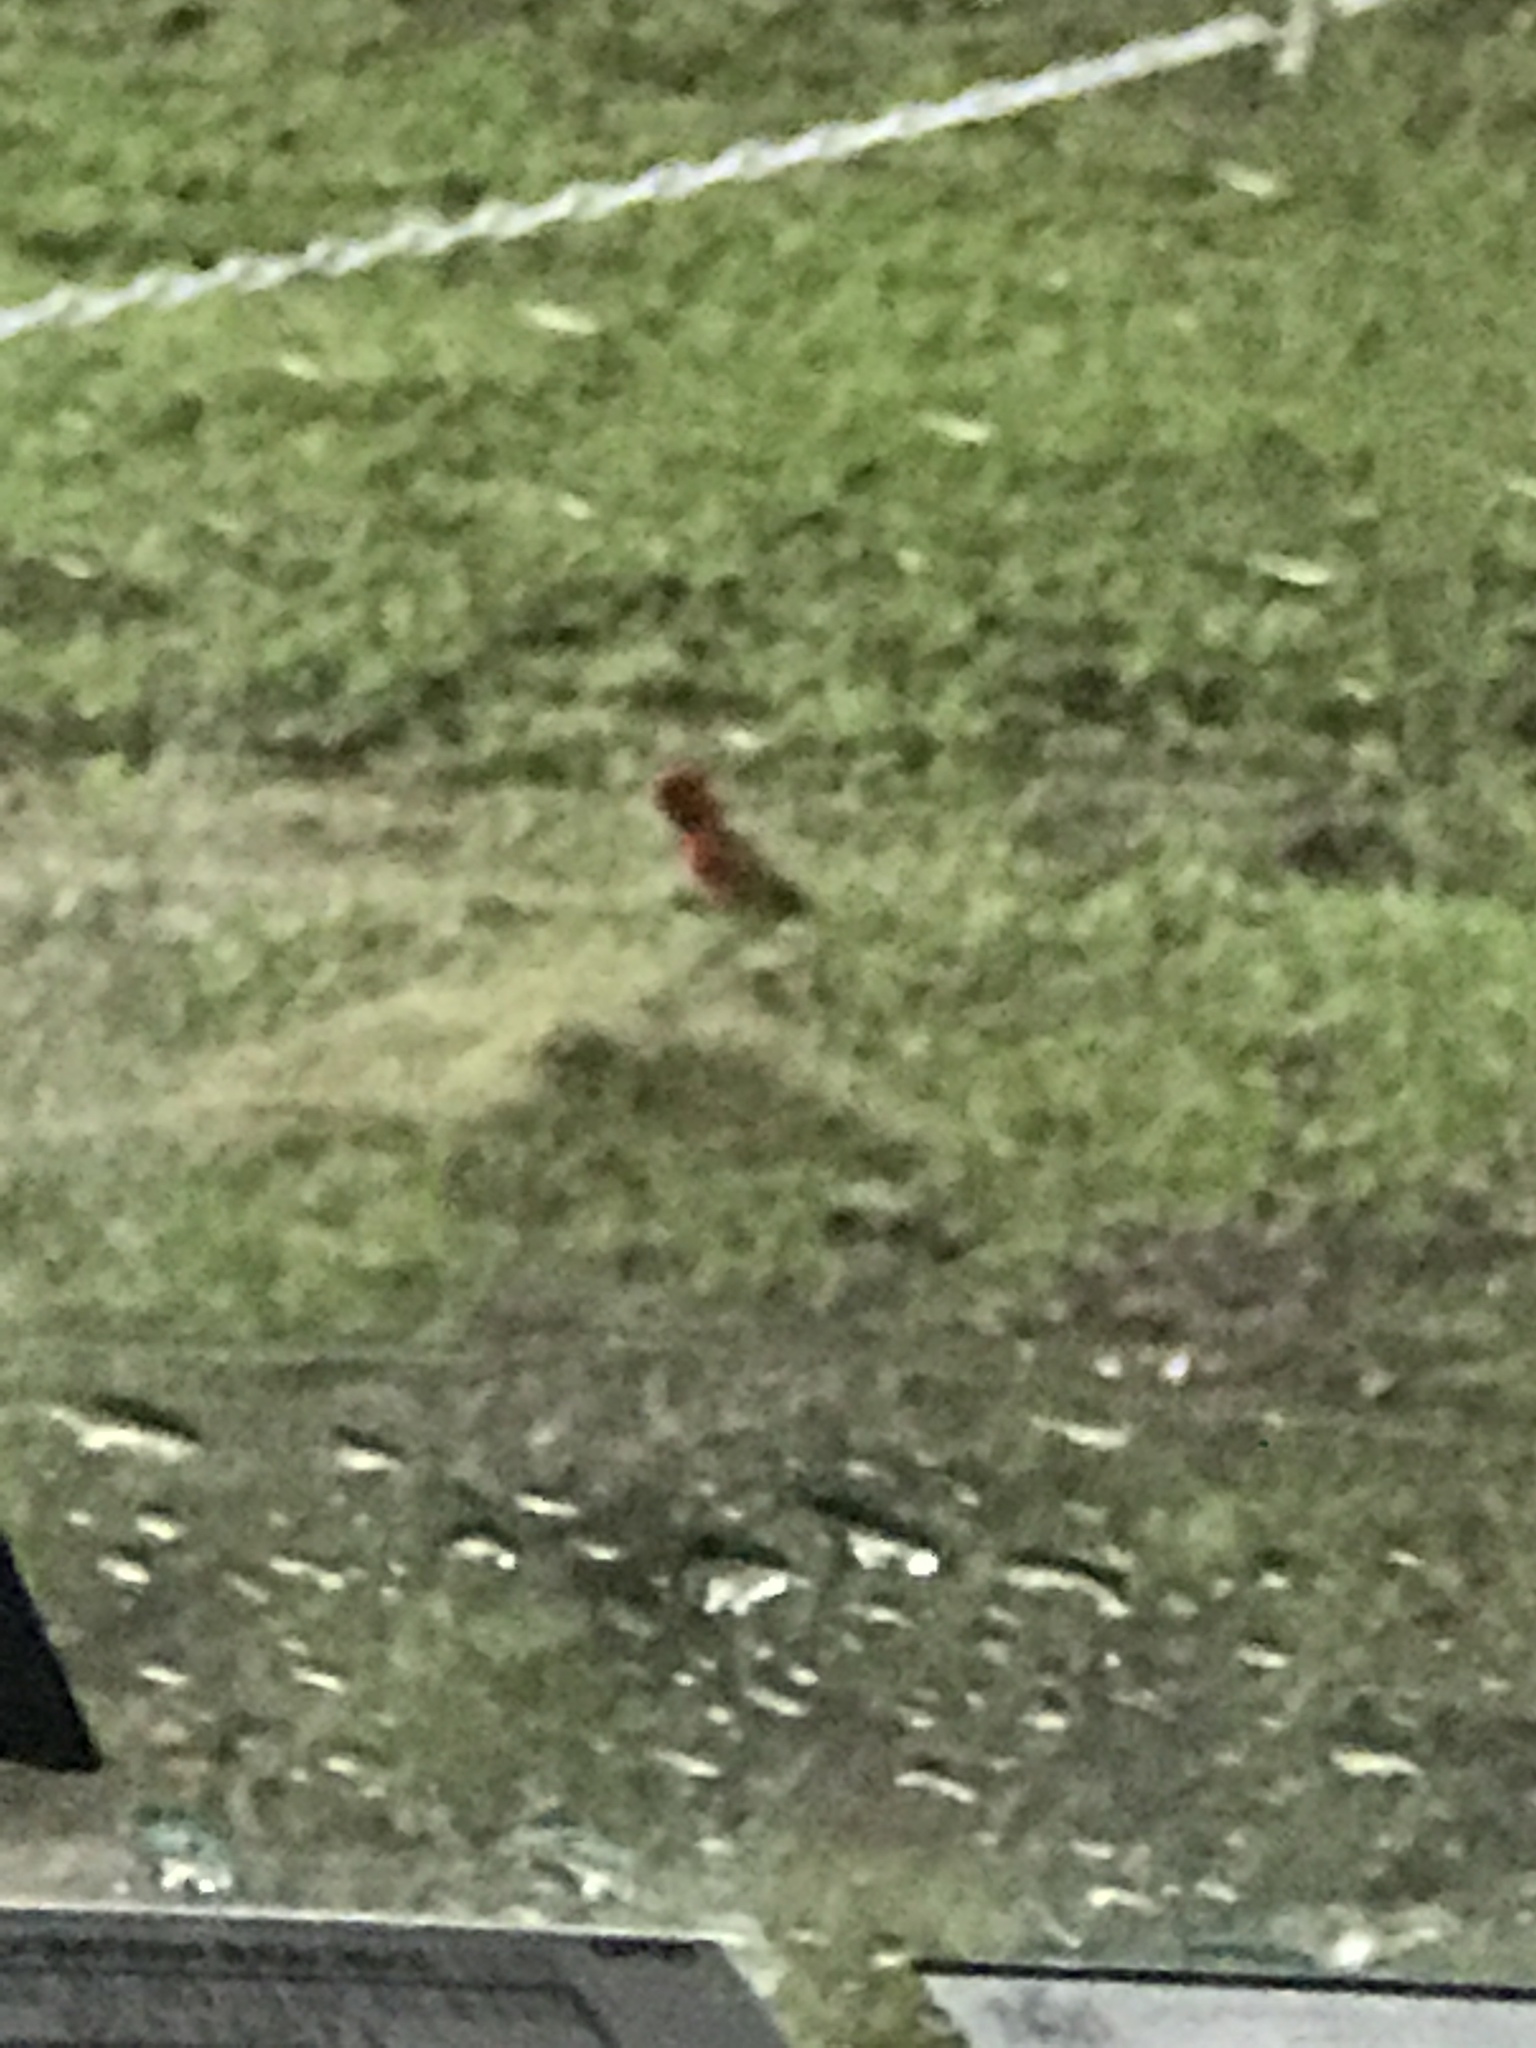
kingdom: Animalia
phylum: Chordata
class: Aves
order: Passeriformes
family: Cardinalidae
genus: Cardinalis
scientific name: Cardinalis cardinalis
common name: Northern cardinal
